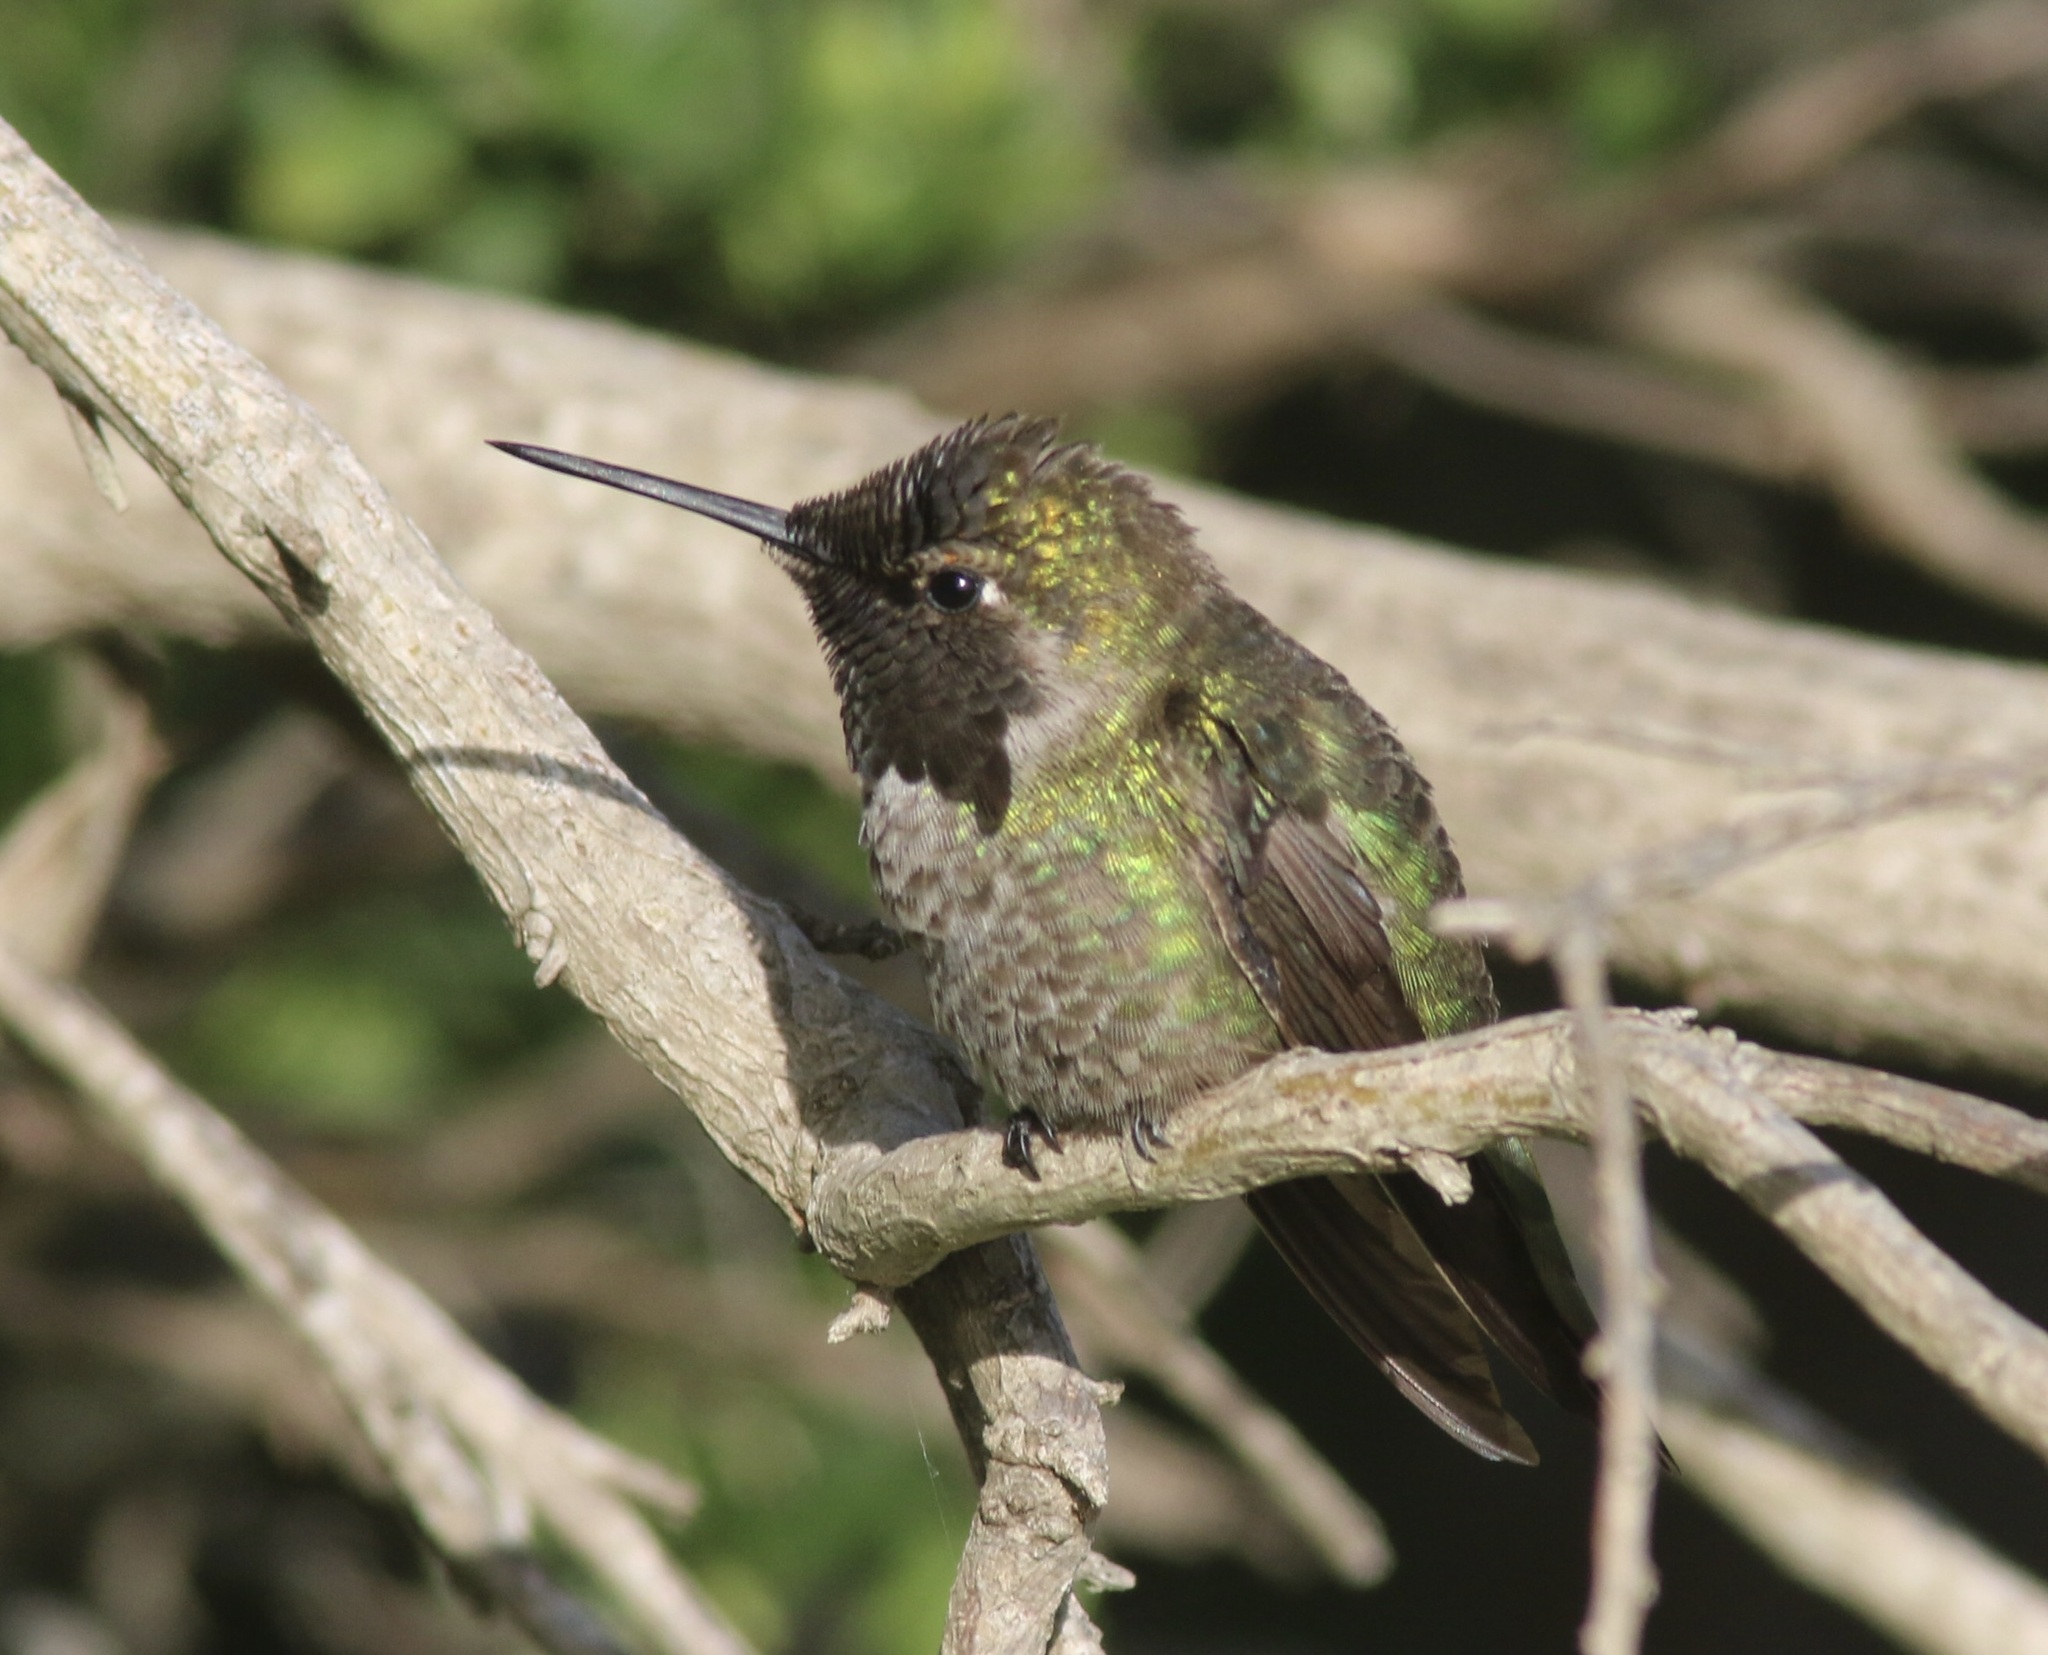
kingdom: Animalia
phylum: Chordata
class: Aves
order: Apodiformes
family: Trochilidae
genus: Calypte
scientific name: Calypte anna
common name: Anna's hummingbird
